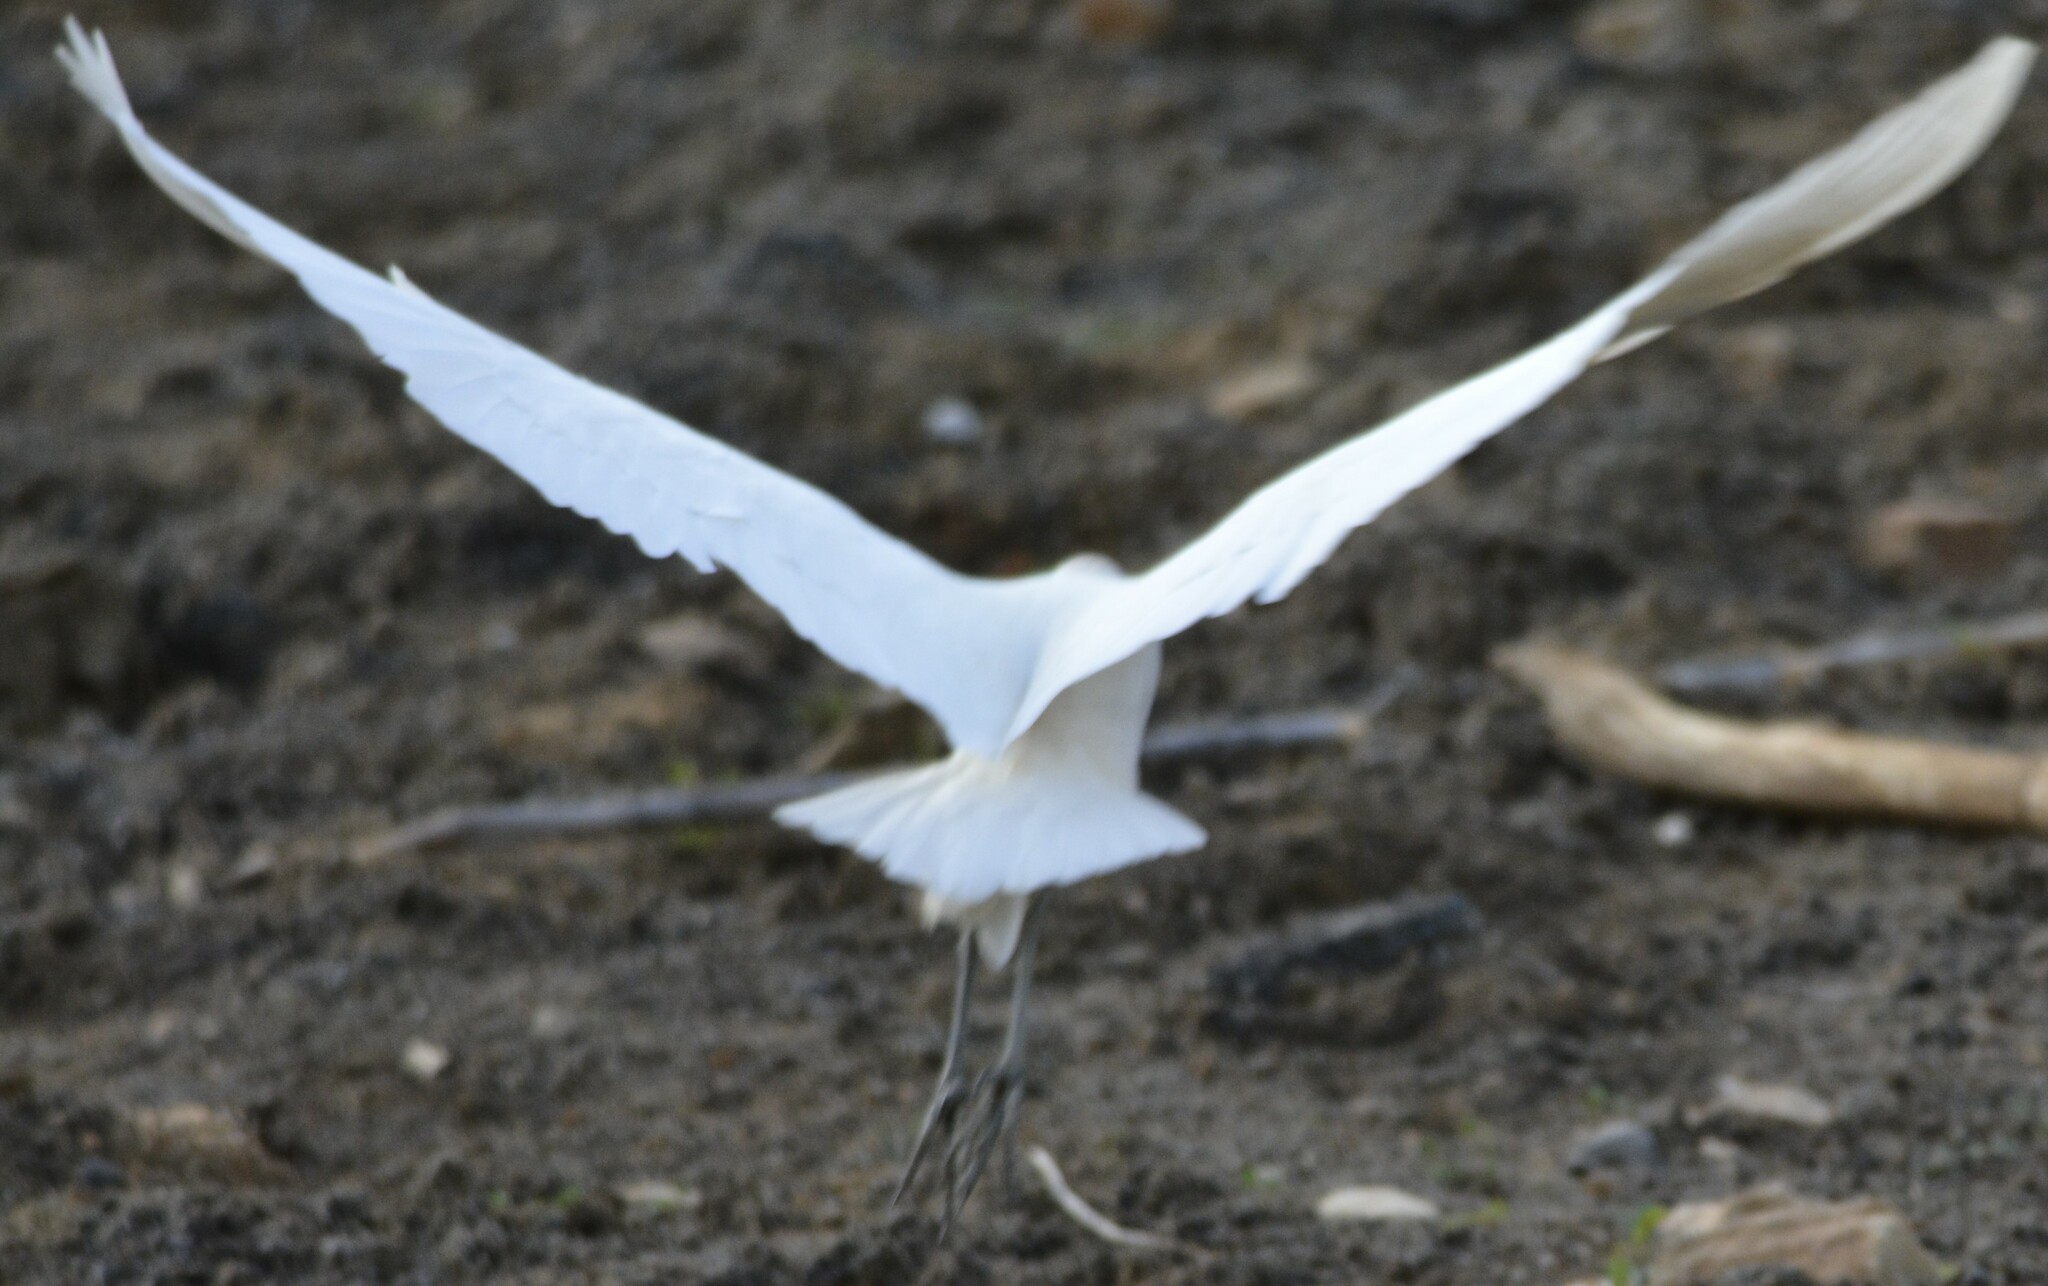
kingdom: Animalia
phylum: Chordata
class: Aves
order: Pelecaniformes
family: Ardeidae
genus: Bubulcus
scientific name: Bubulcus ibis
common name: Cattle egret
